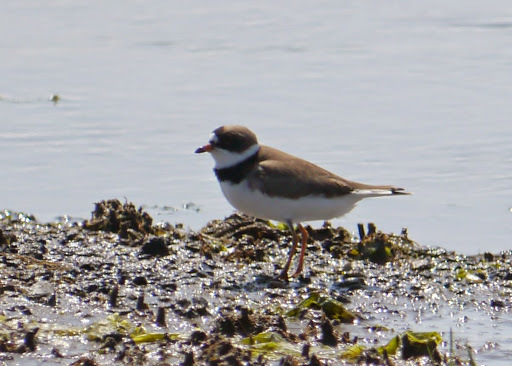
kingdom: Animalia
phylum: Chordata
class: Aves
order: Charadriiformes
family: Charadriidae
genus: Charadrius
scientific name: Charadrius semipalmatus
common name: Semipalmated plover
